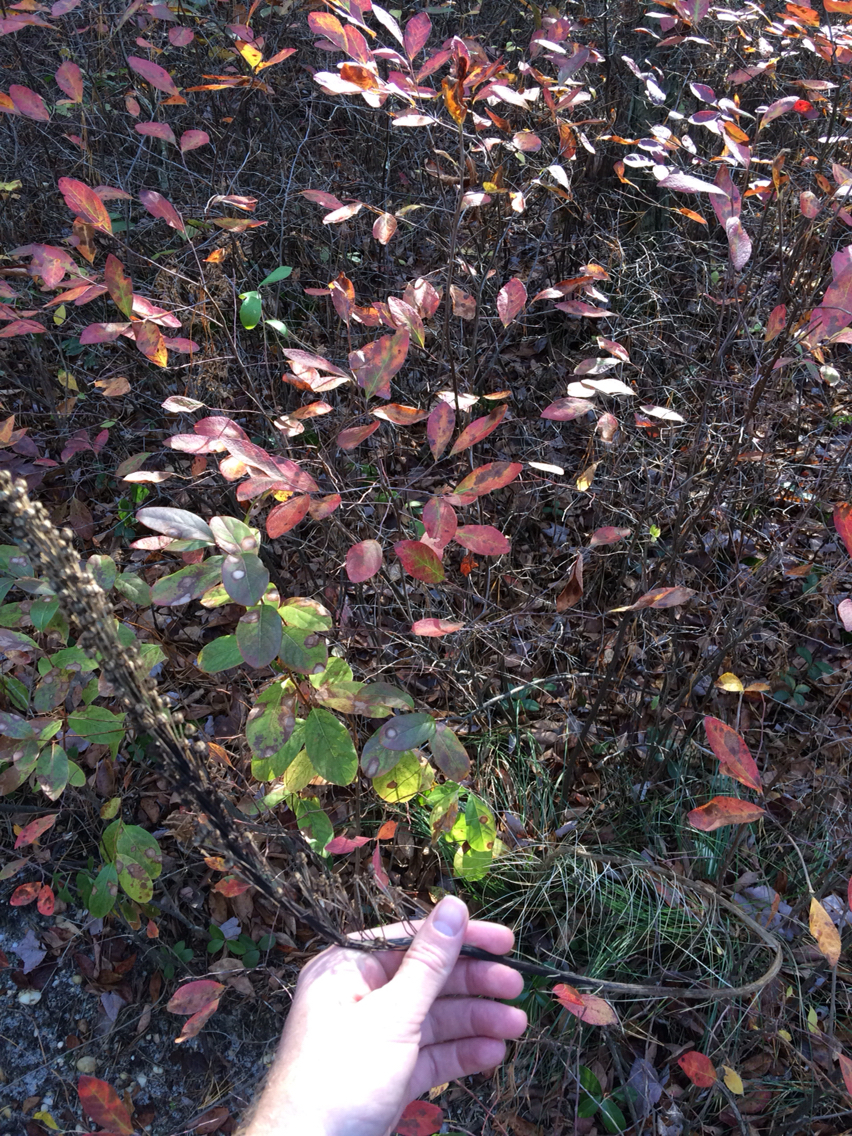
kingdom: Plantae
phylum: Tracheophyta
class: Liliopsida
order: Liliales
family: Melanthiaceae
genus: Xerophyllum
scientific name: Xerophyllum asphodeloides
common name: Mountain-asphodel
